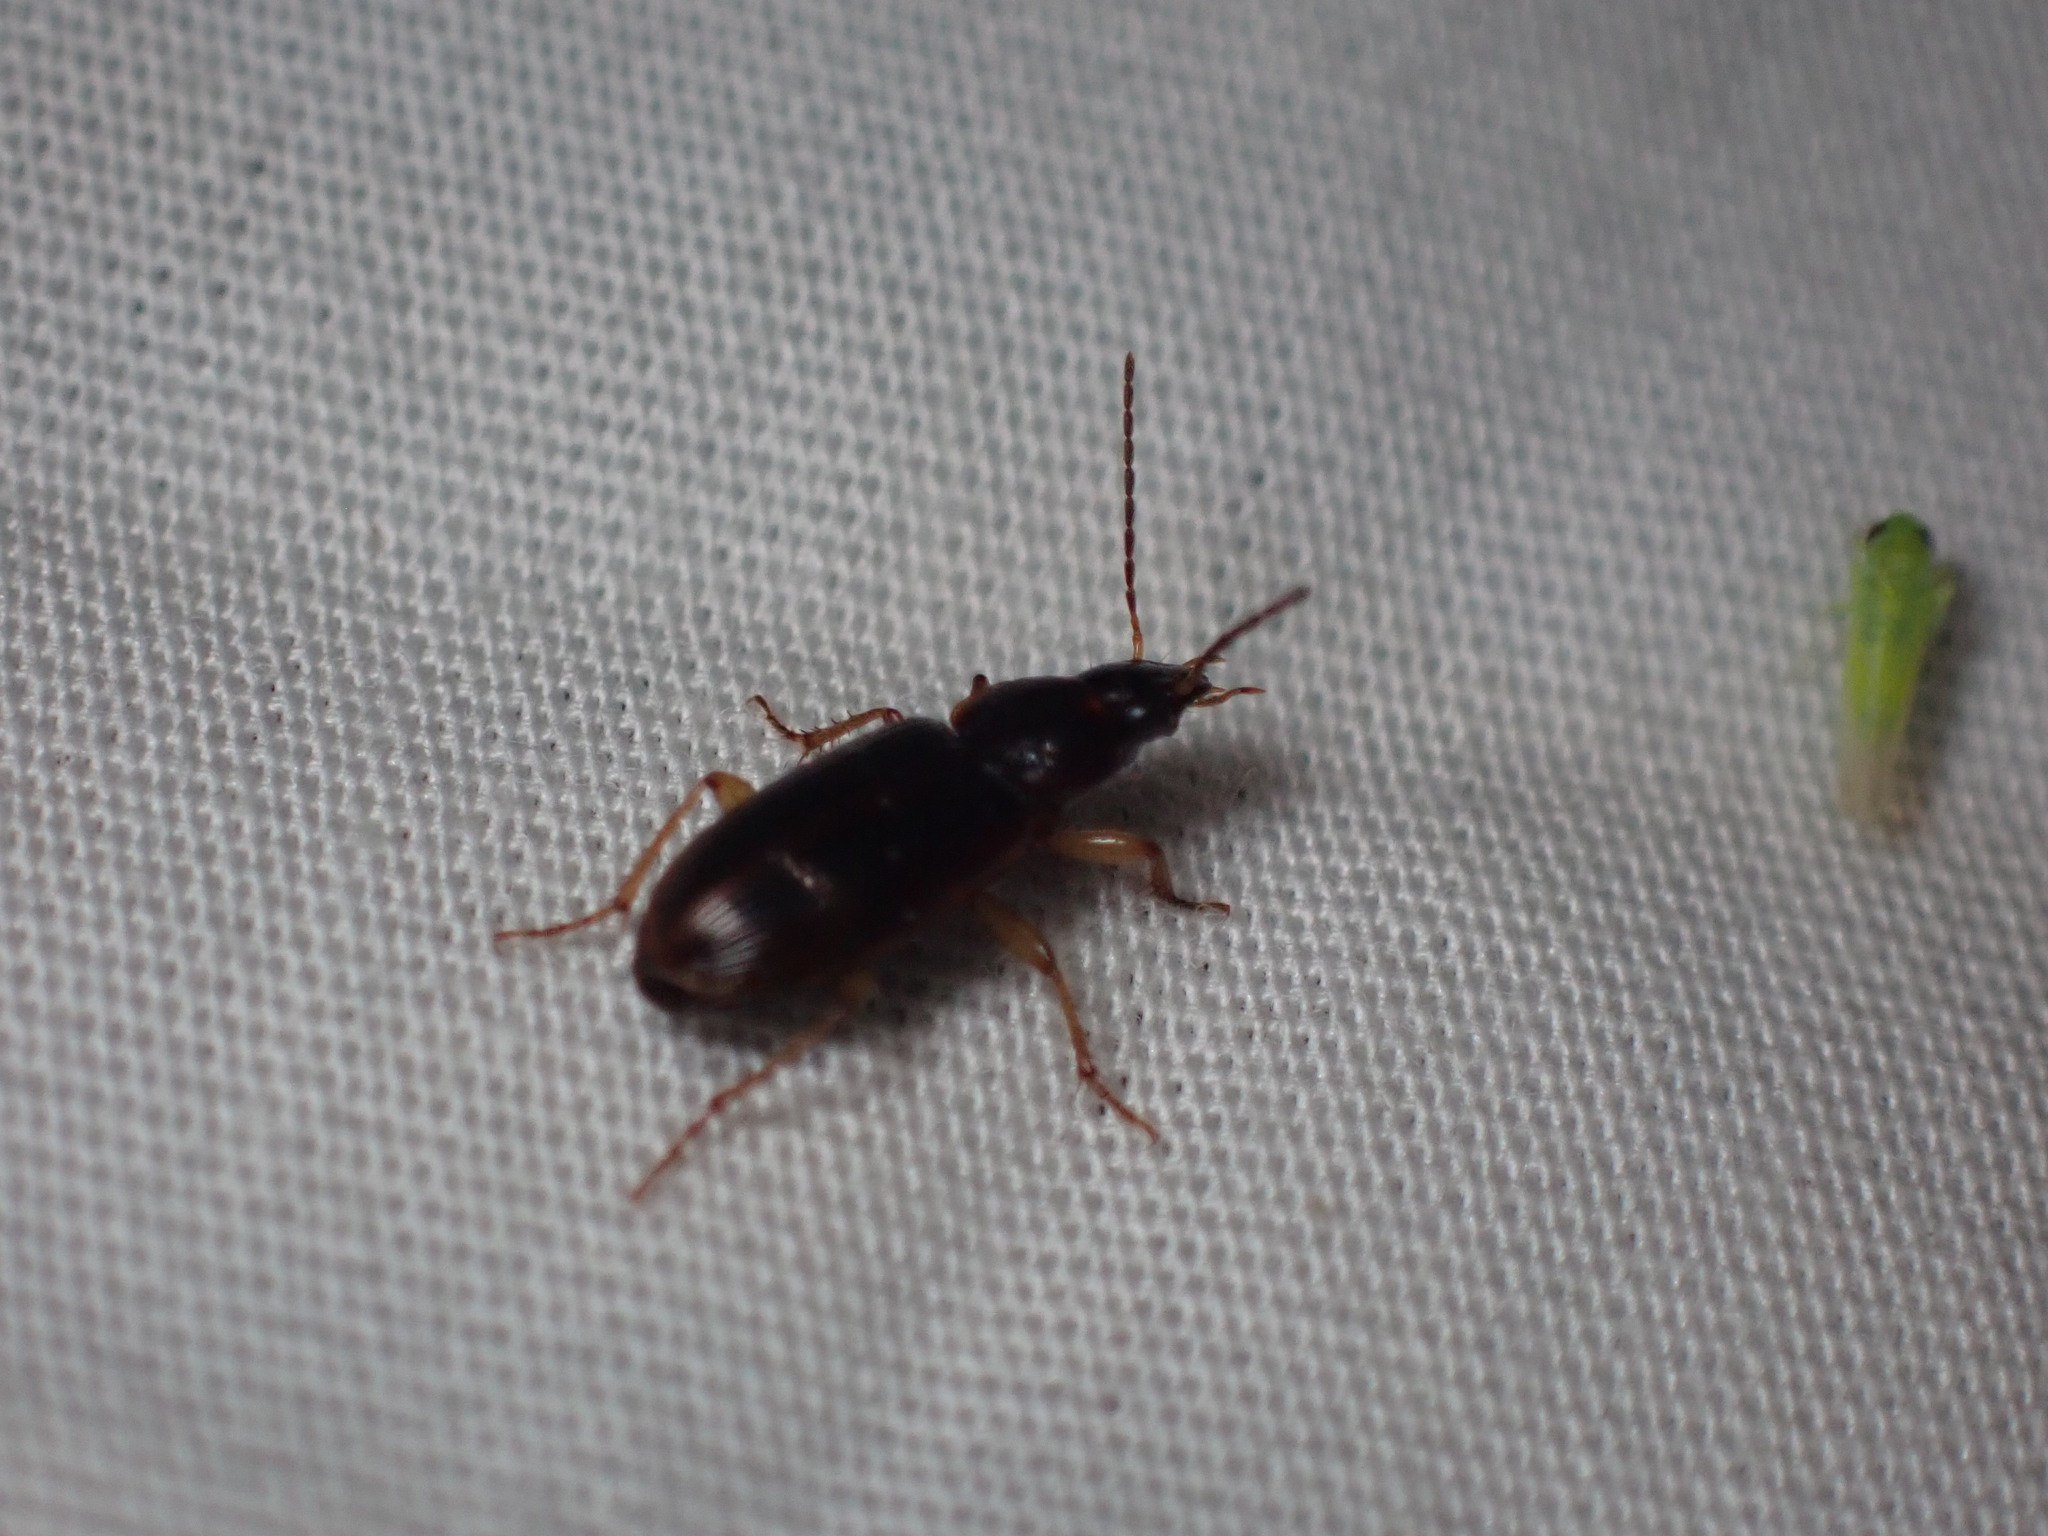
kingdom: Animalia
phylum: Arthropoda
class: Insecta
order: Coleoptera
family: Carabidae
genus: Stenolophus
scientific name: Stenolophus ochropezus
